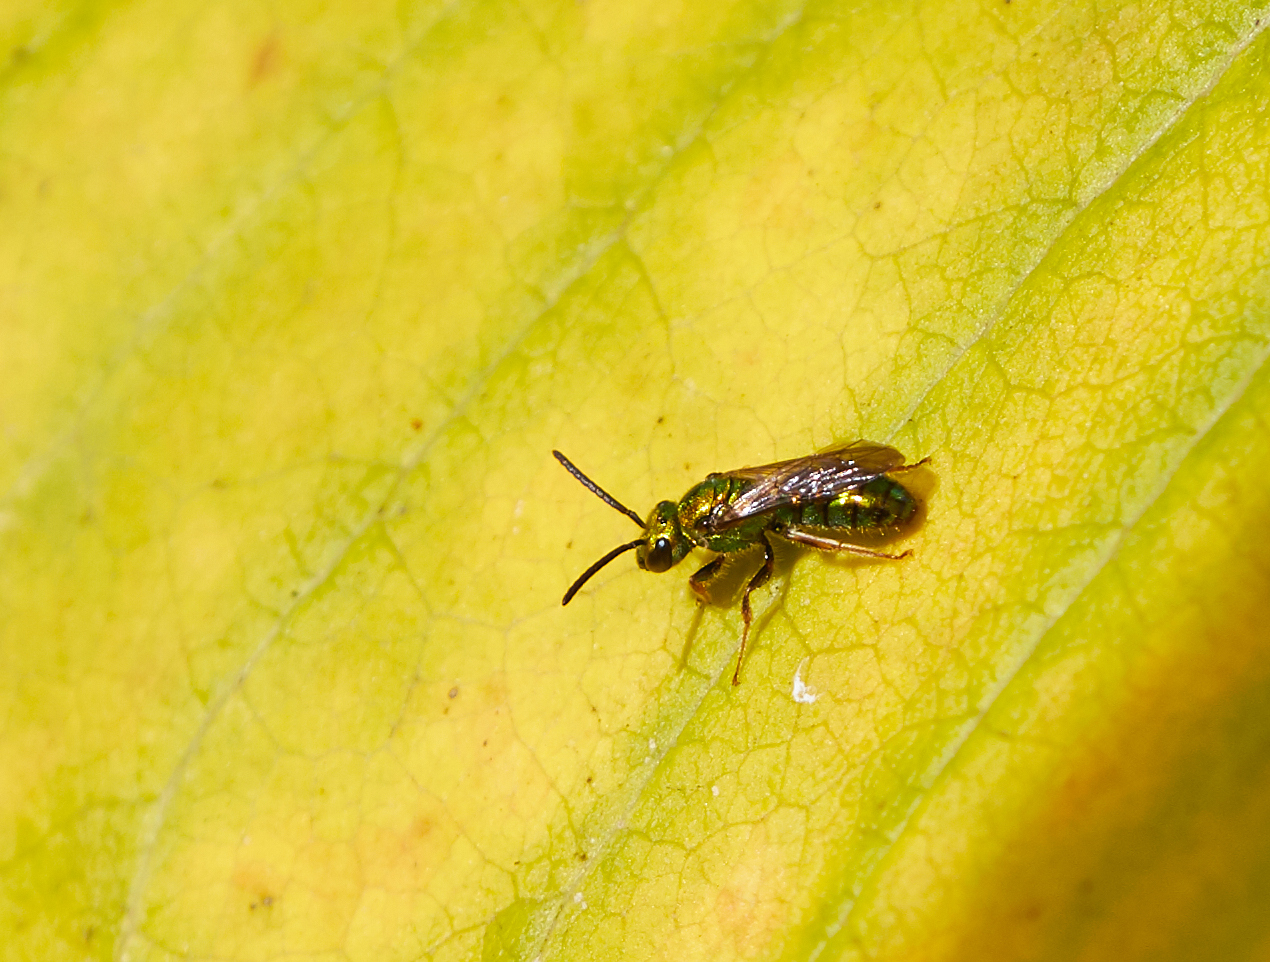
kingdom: Animalia
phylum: Arthropoda
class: Insecta
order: Hymenoptera
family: Halictidae
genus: Augochlora
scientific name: Augochlora pura
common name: Pure green sweat bee
